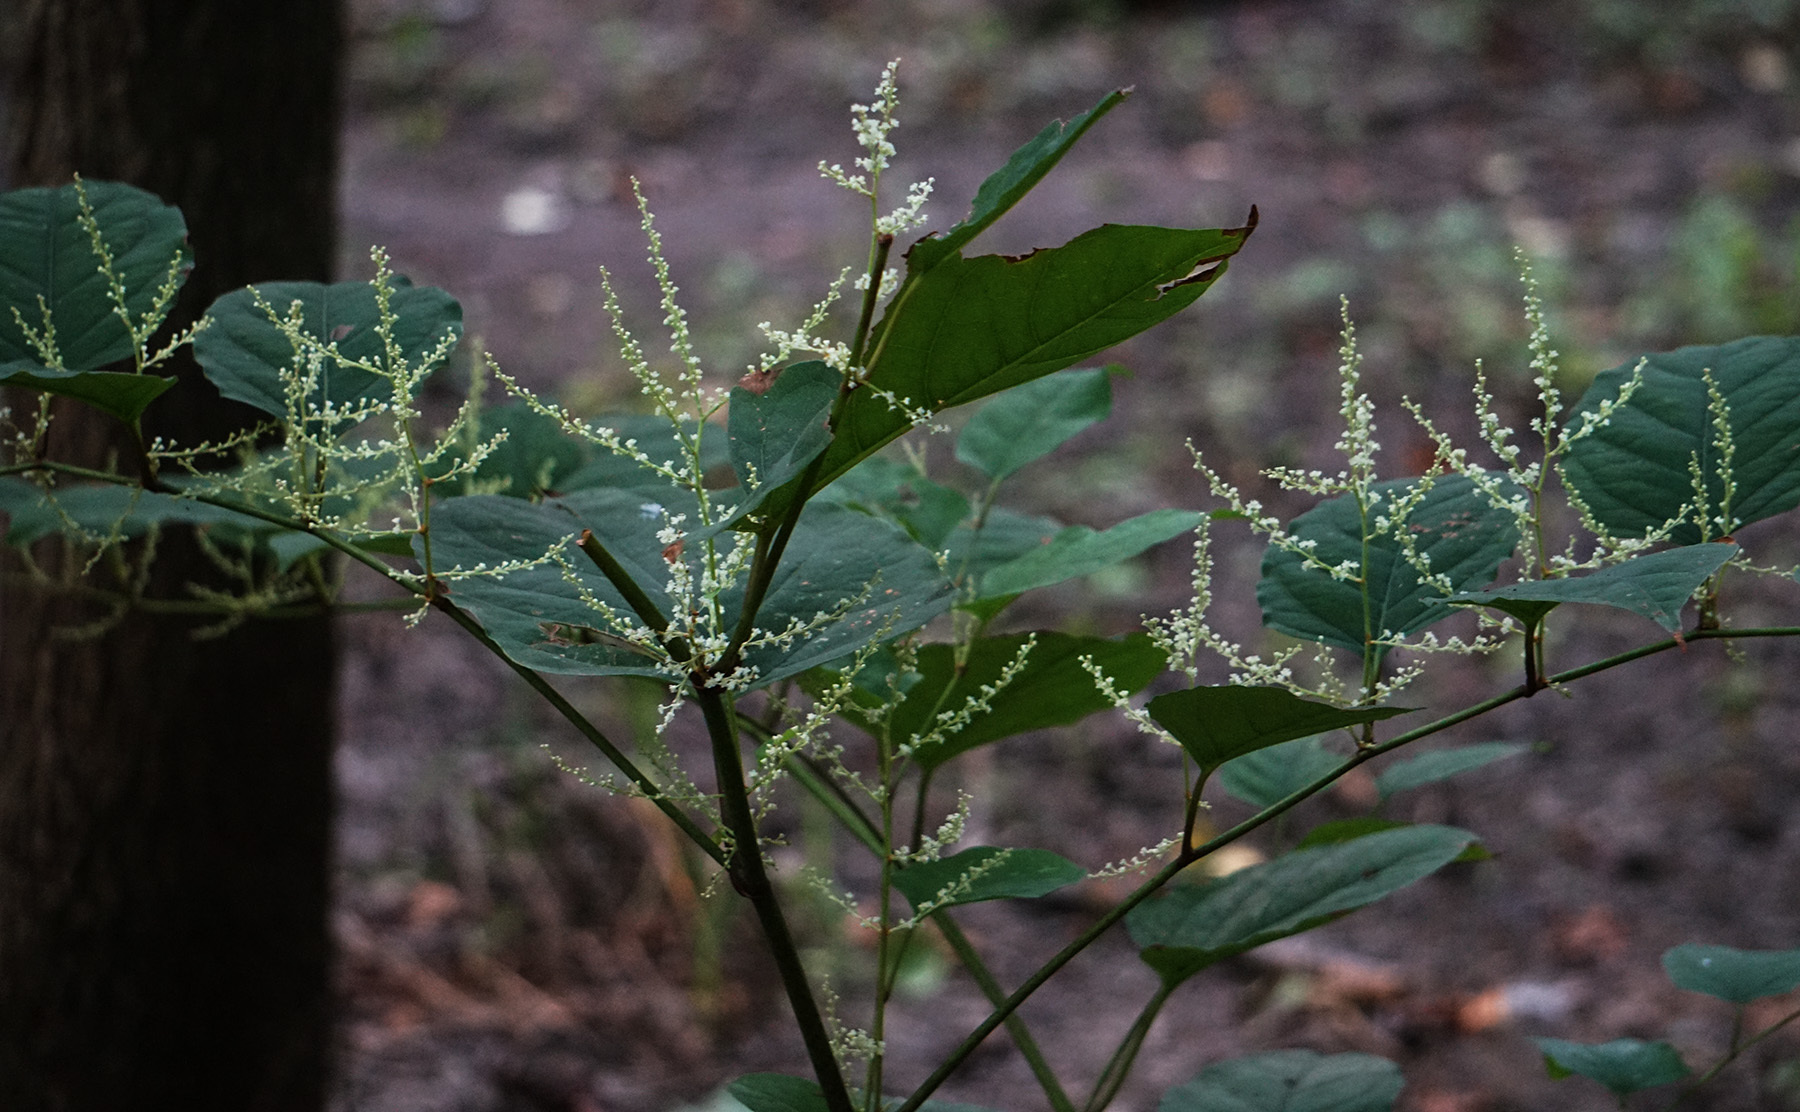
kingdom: Plantae
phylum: Tracheophyta
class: Magnoliopsida
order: Caryophyllales
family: Polygonaceae
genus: Reynoutria
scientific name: Reynoutria japonica
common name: Japanese knotweed
